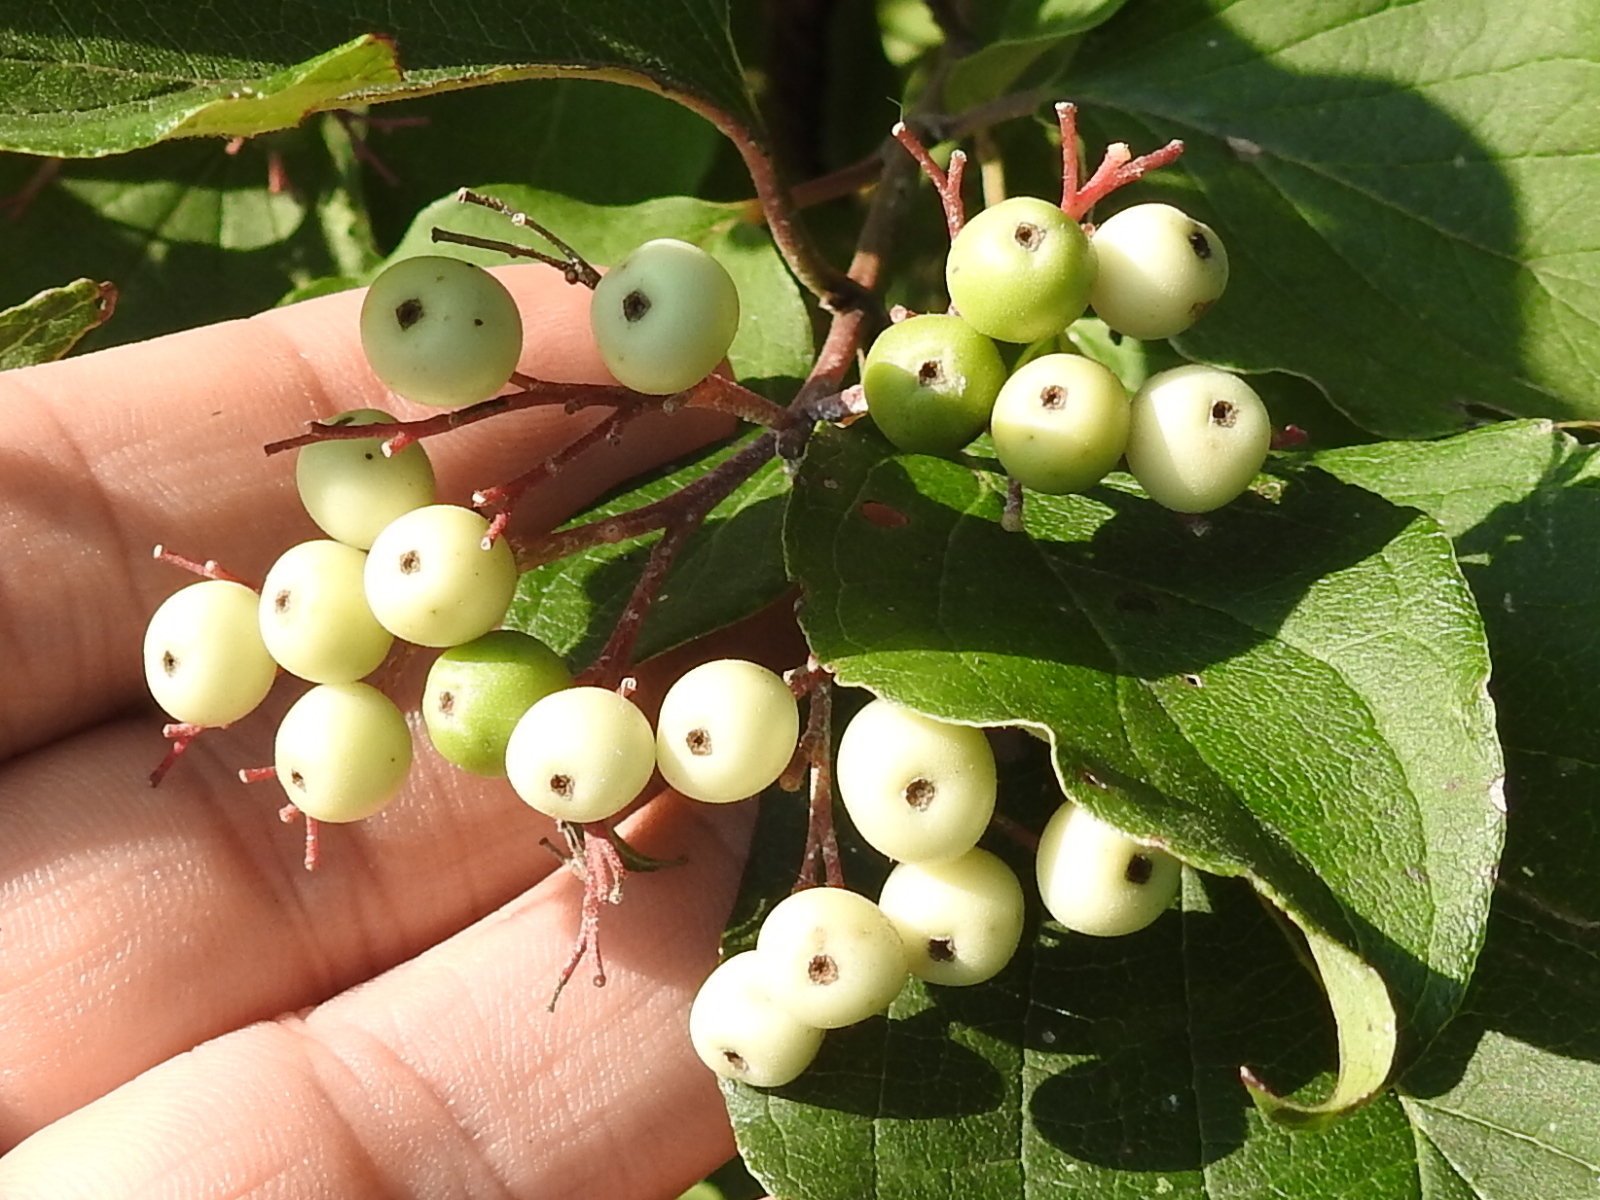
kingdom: Plantae
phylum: Tracheophyta
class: Magnoliopsida
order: Cornales
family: Cornaceae
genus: Cornus
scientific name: Cornus drummondii
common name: Rough-leaf dogwood
